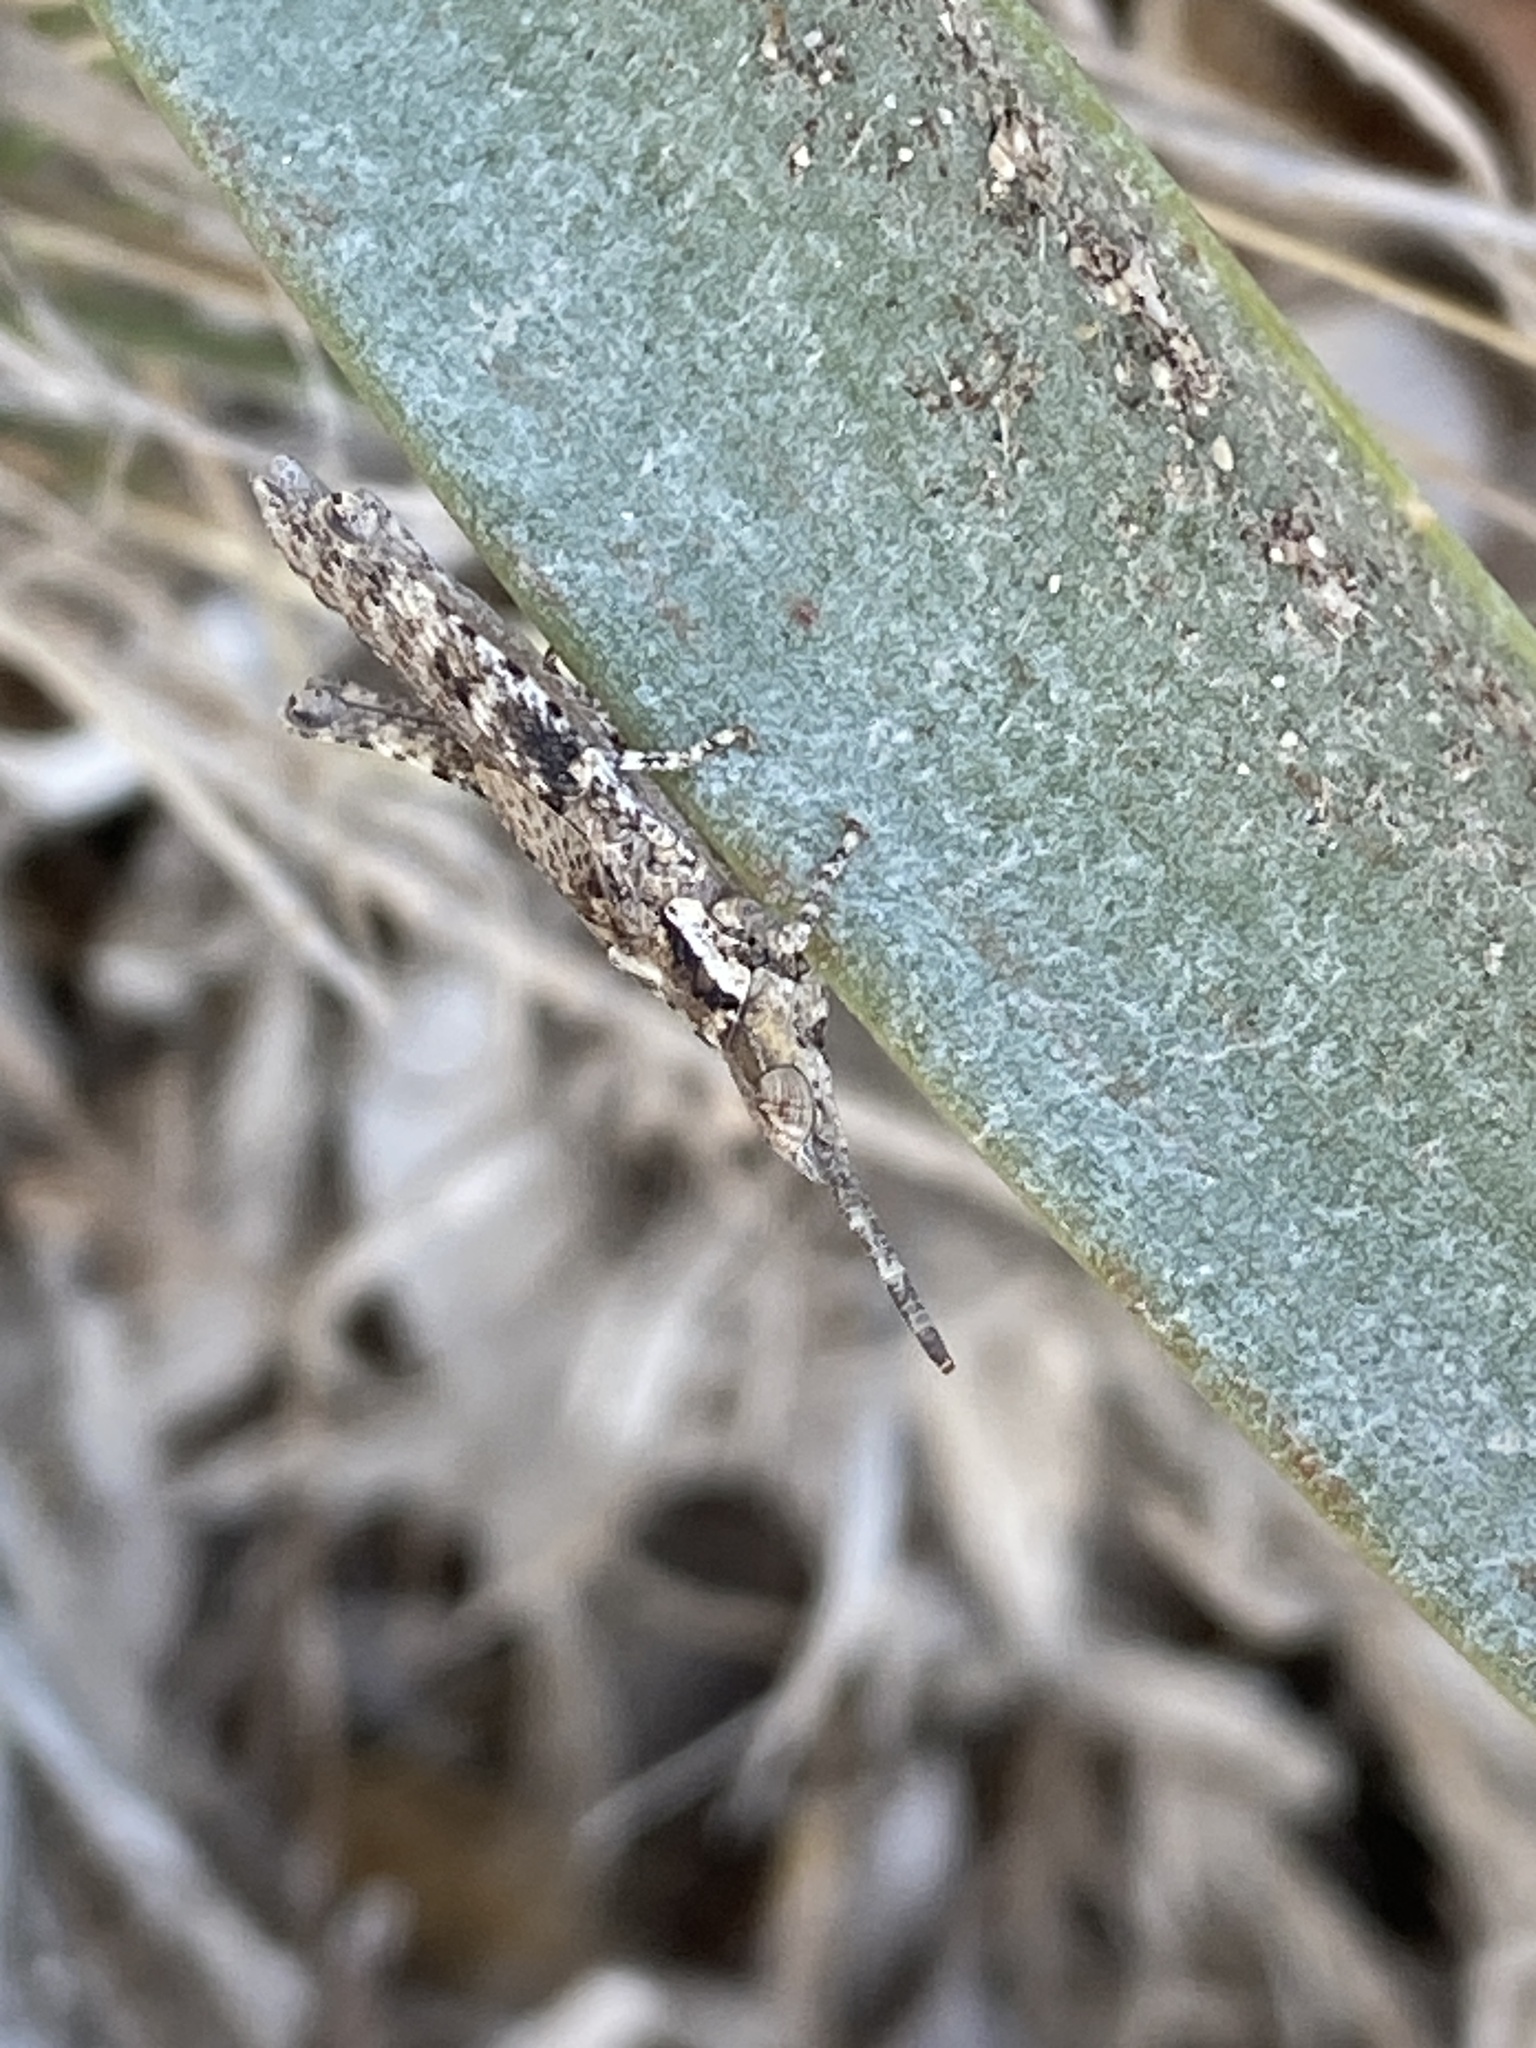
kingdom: Animalia
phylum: Arthropoda
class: Insecta
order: Orthoptera
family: Pyrgomorphidae
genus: Pyrgomorpha
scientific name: Pyrgomorpha conica
